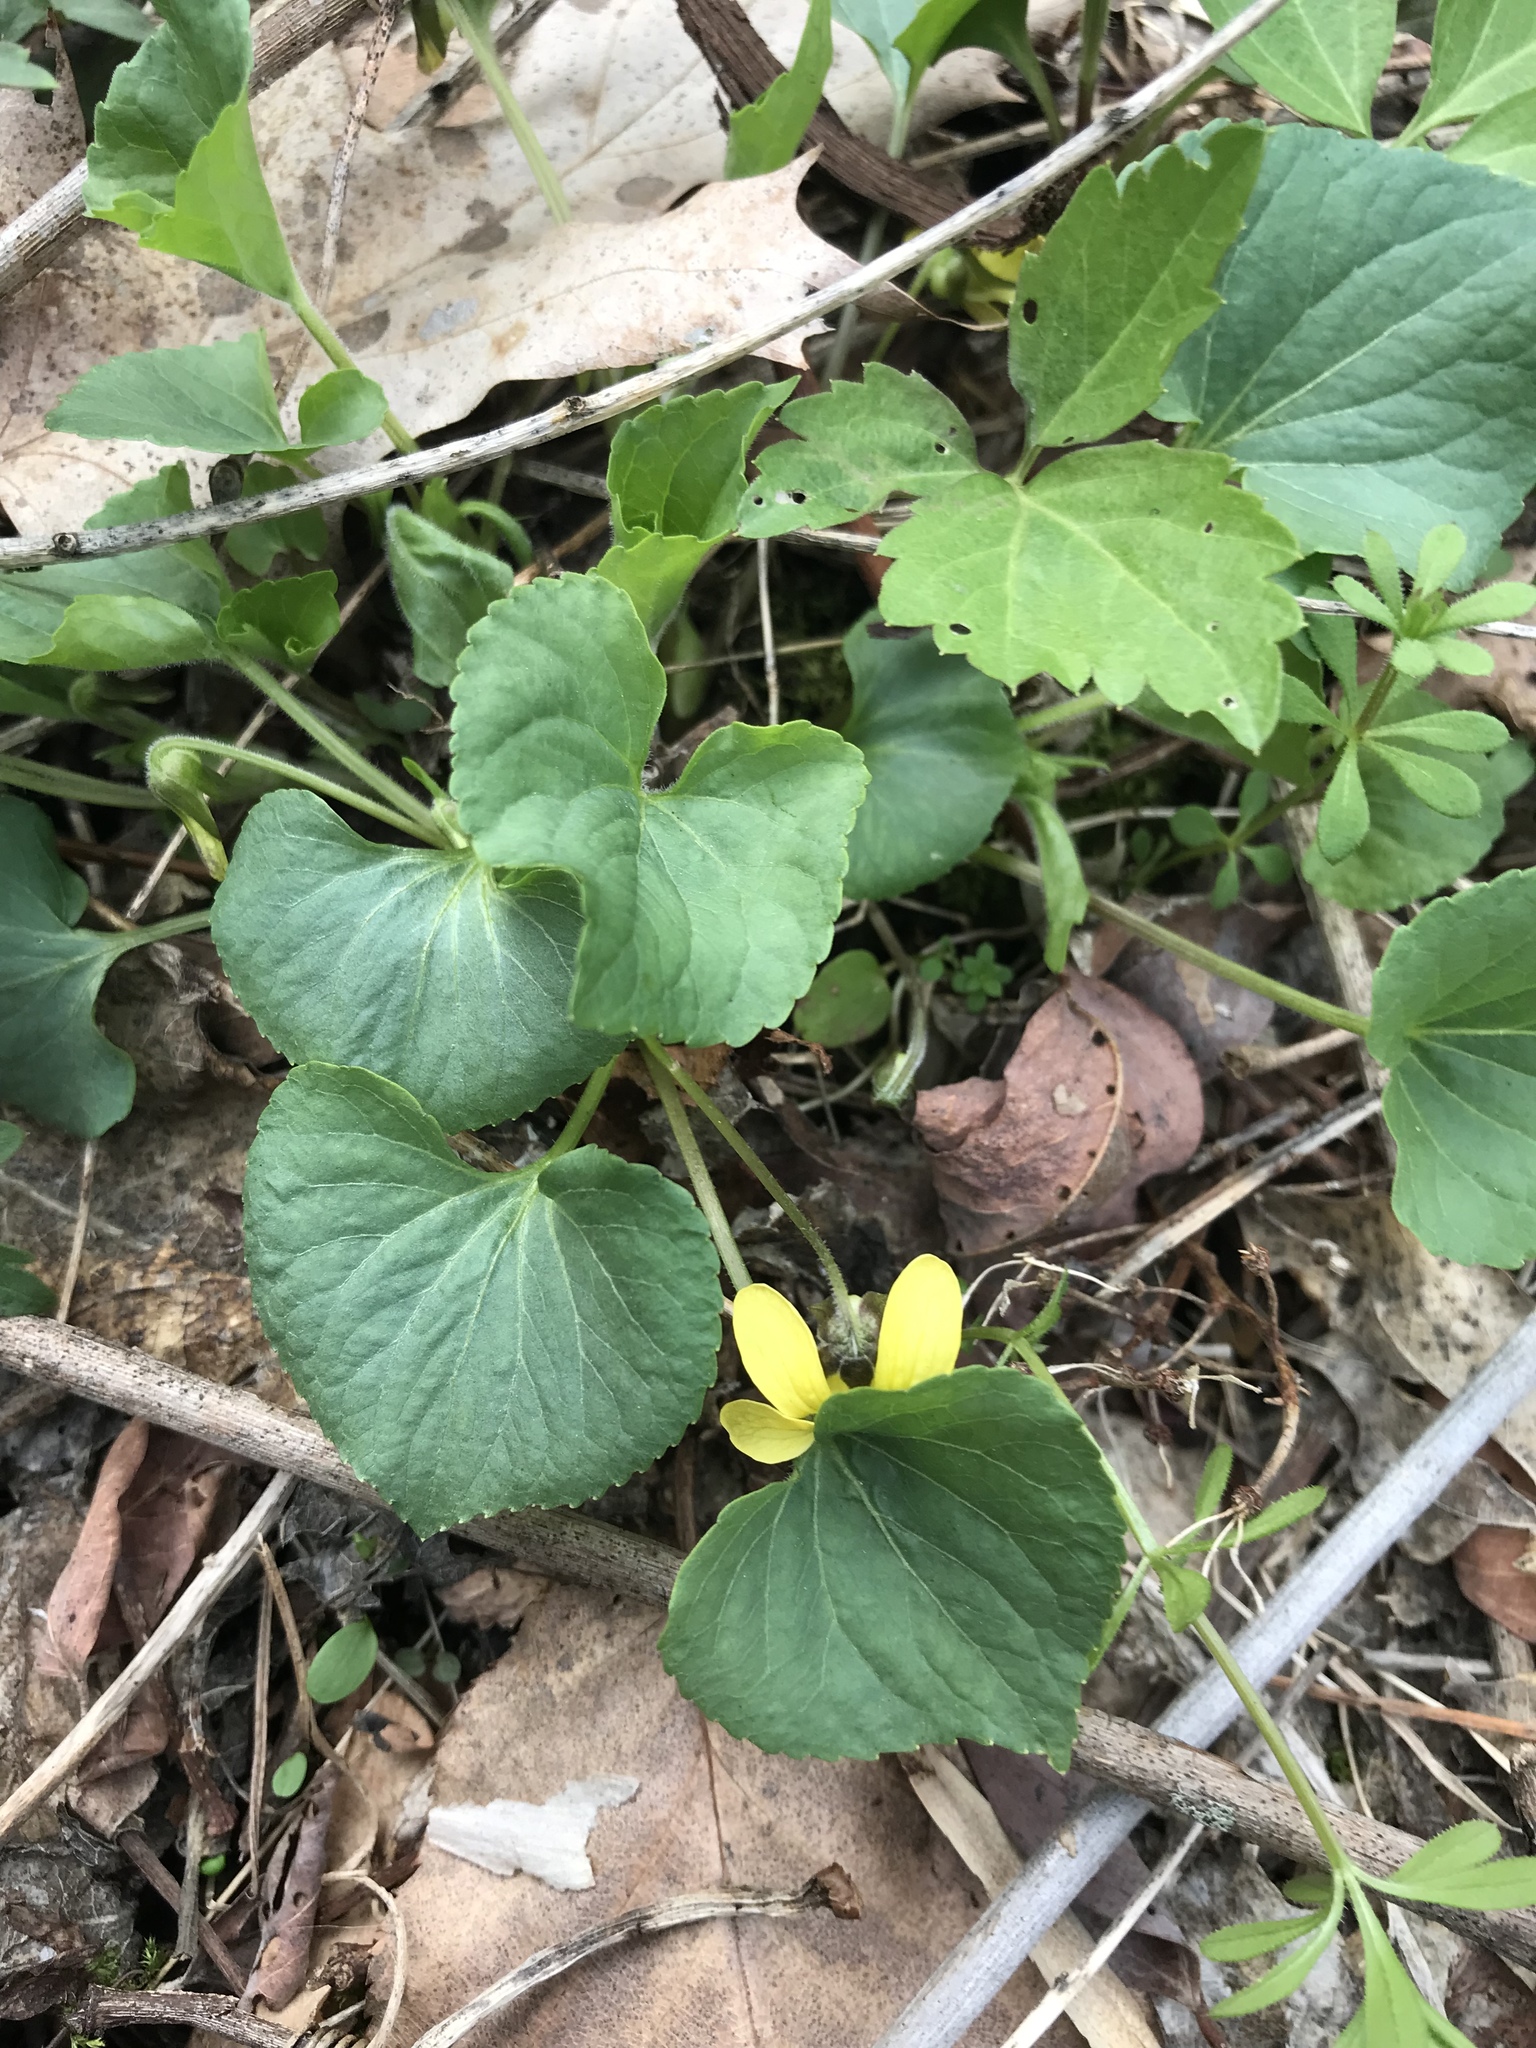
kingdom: Plantae
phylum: Tracheophyta
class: Magnoliopsida
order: Malpighiales
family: Violaceae
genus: Viola
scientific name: Viola eriocarpa
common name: Smooth yellow violet
